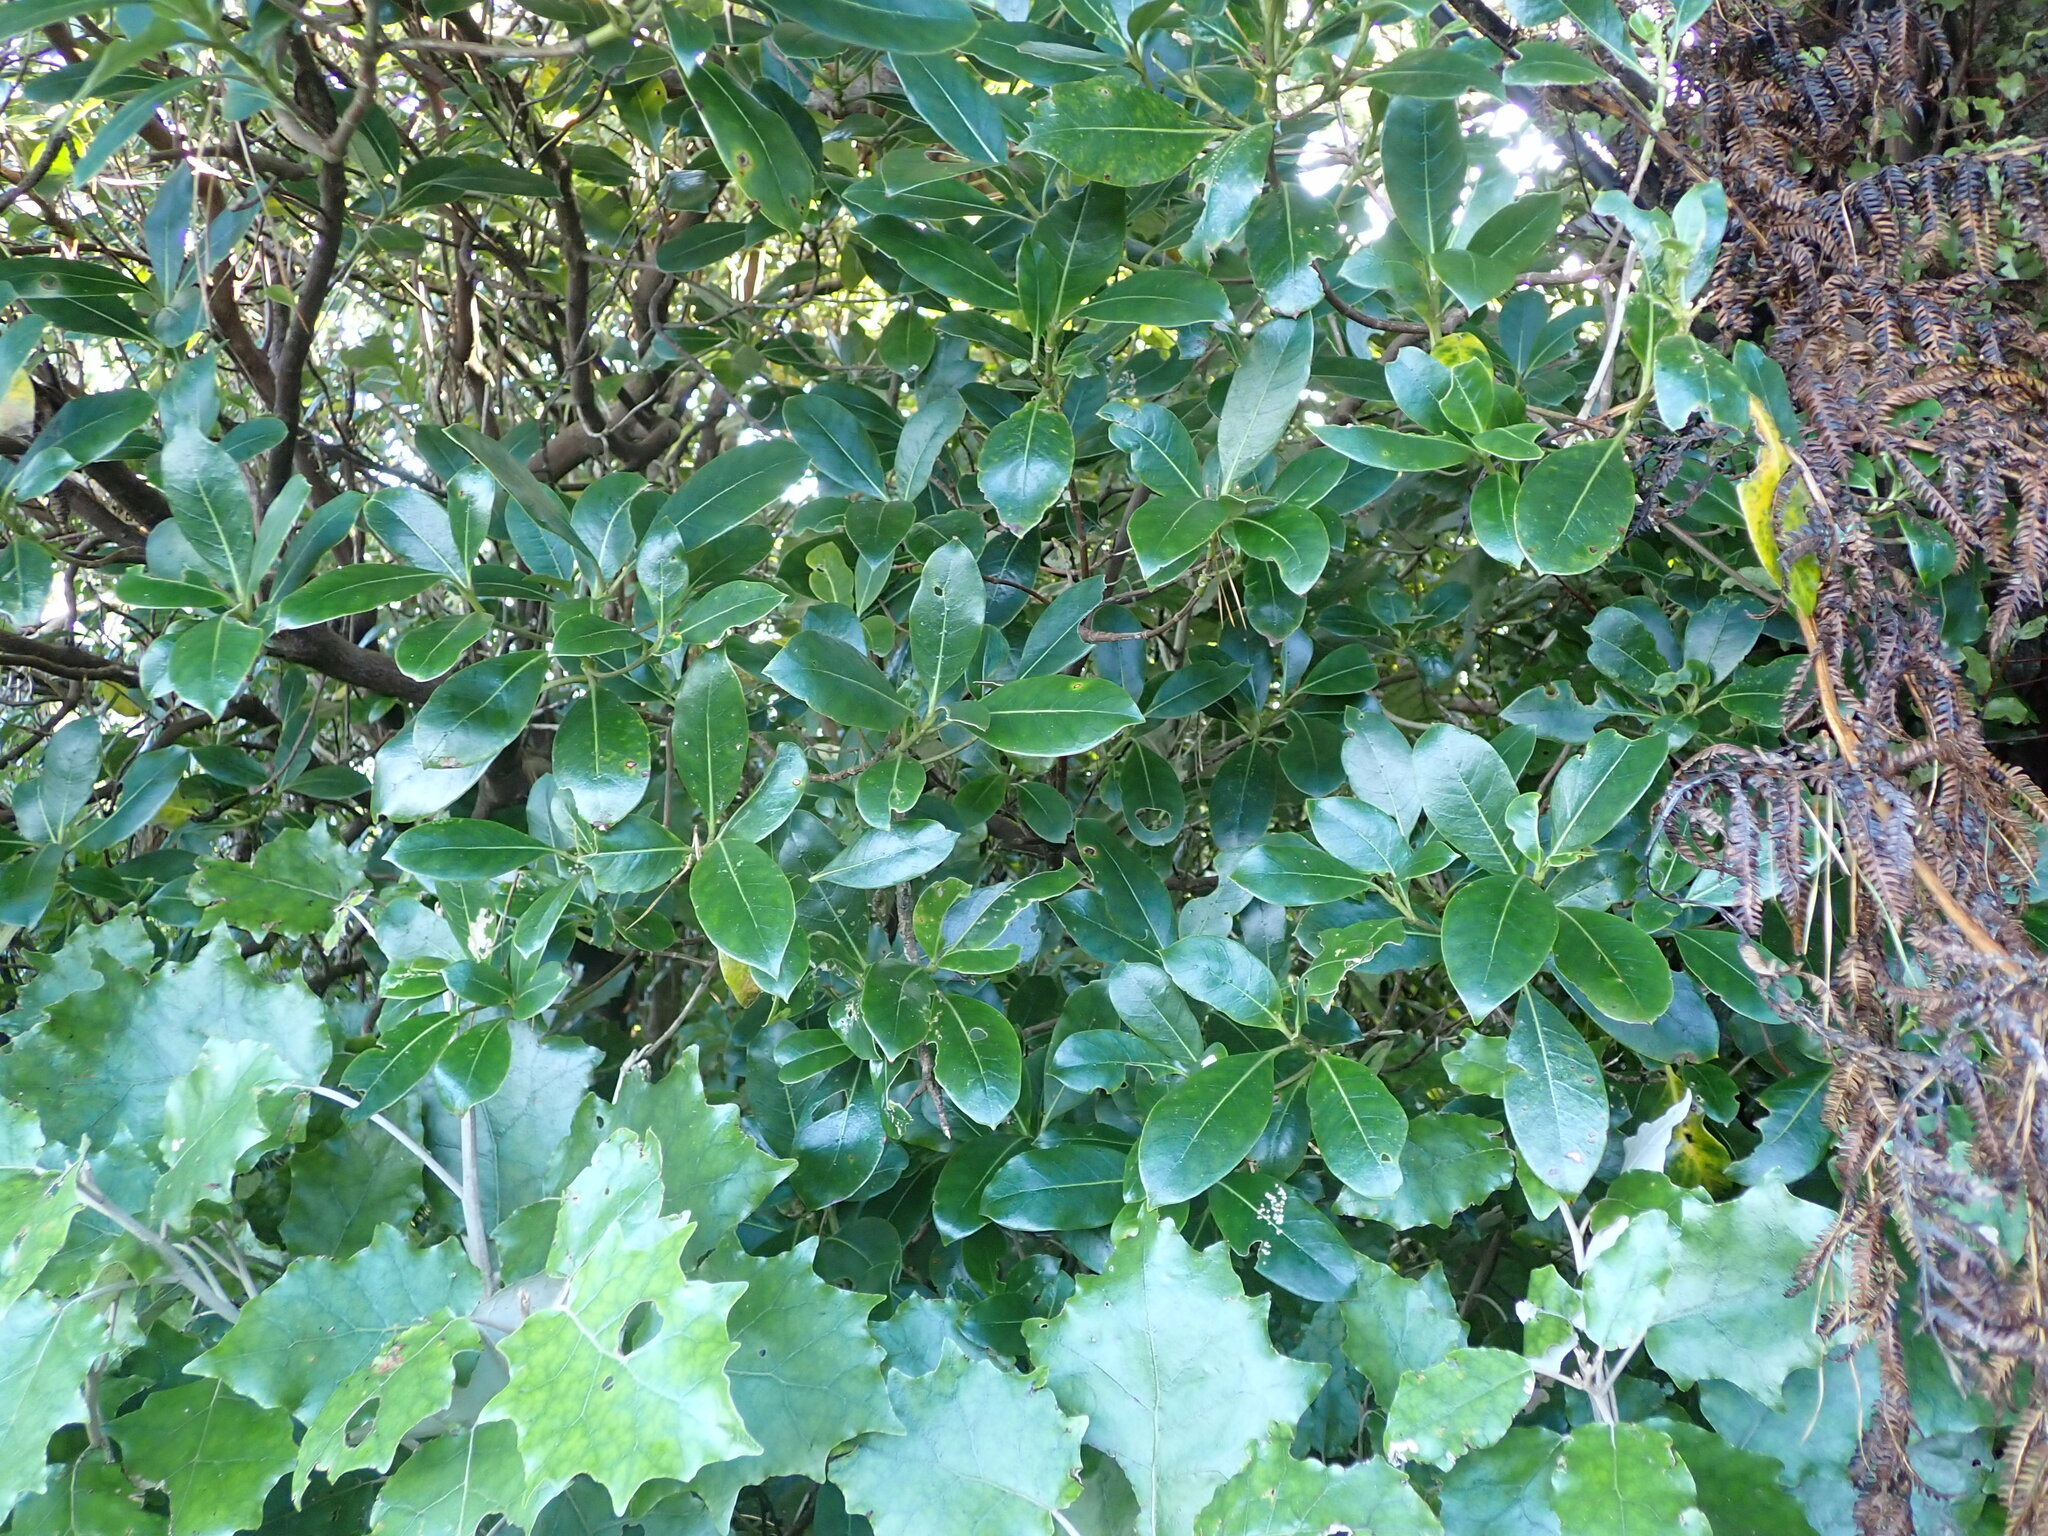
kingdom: Plantae
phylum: Tracheophyta
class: Magnoliopsida
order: Gentianales
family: Rubiaceae
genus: Coprosma
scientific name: Coprosma lucida
